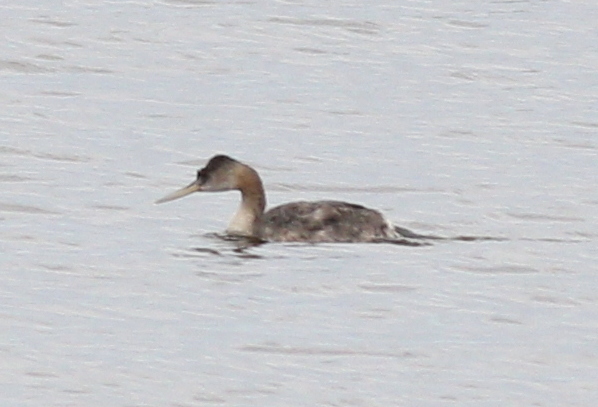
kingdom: Animalia
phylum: Chordata
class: Aves
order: Podicipediformes
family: Podicipedidae
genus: Podiceps
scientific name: Podiceps major
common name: Great grebe
